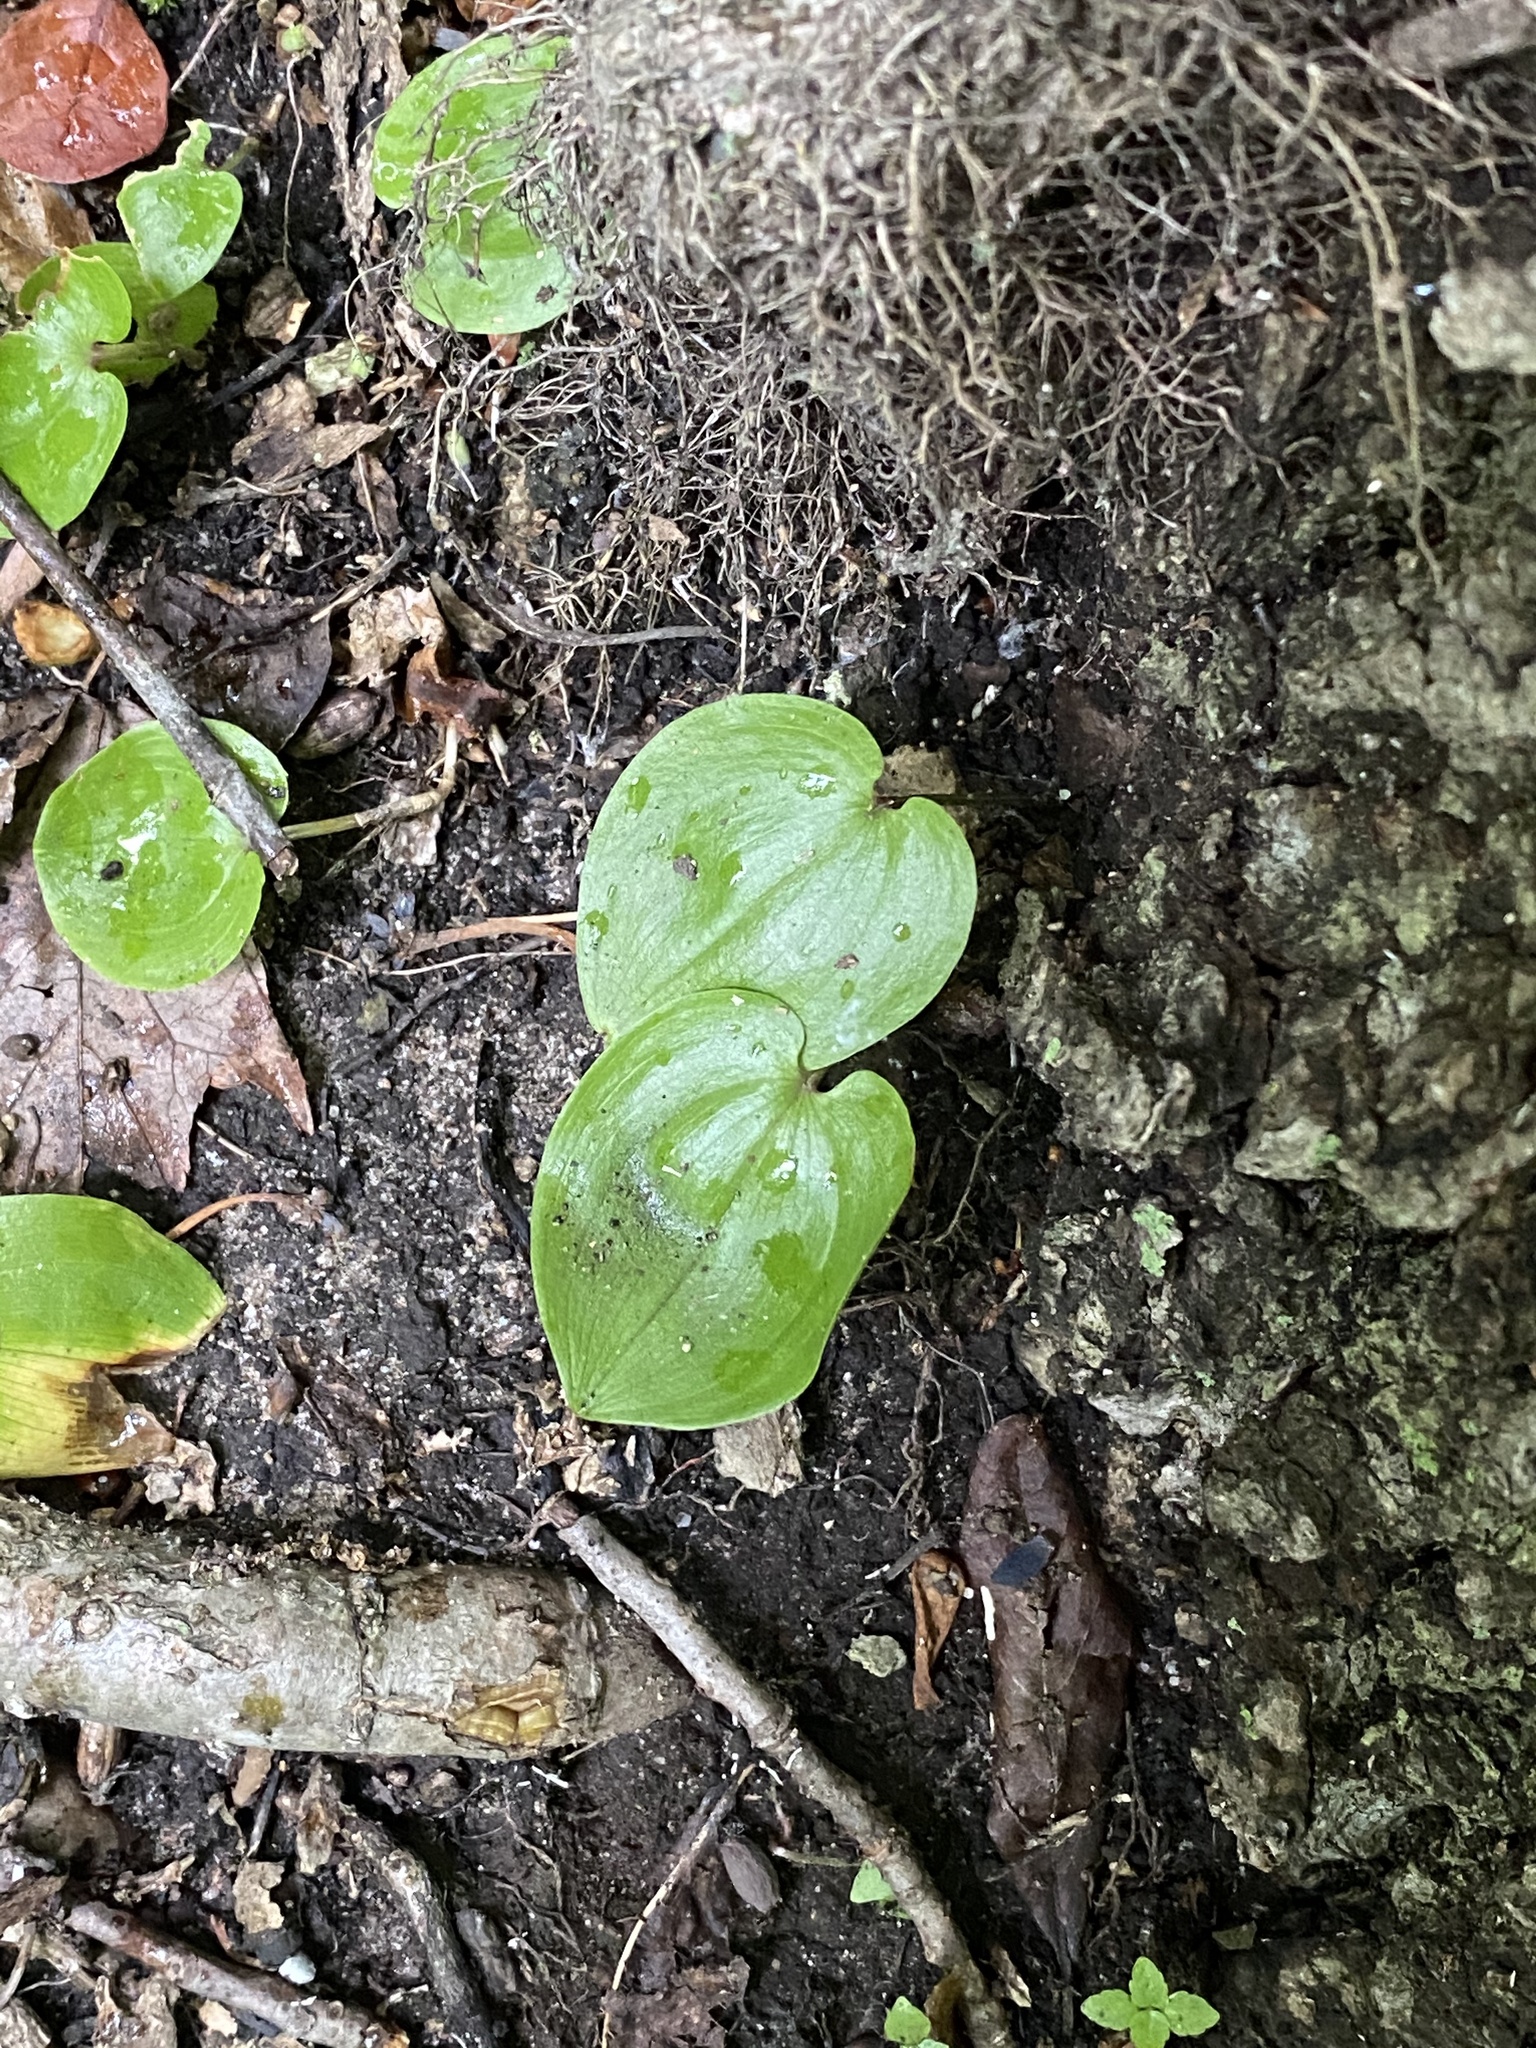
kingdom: Plantae
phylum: Tracheophyta
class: Liliopsida
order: Asparagales
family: Asparagaceae
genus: Maianthemum
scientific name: Maianthemum canadense
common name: False lily-of-the-valley
